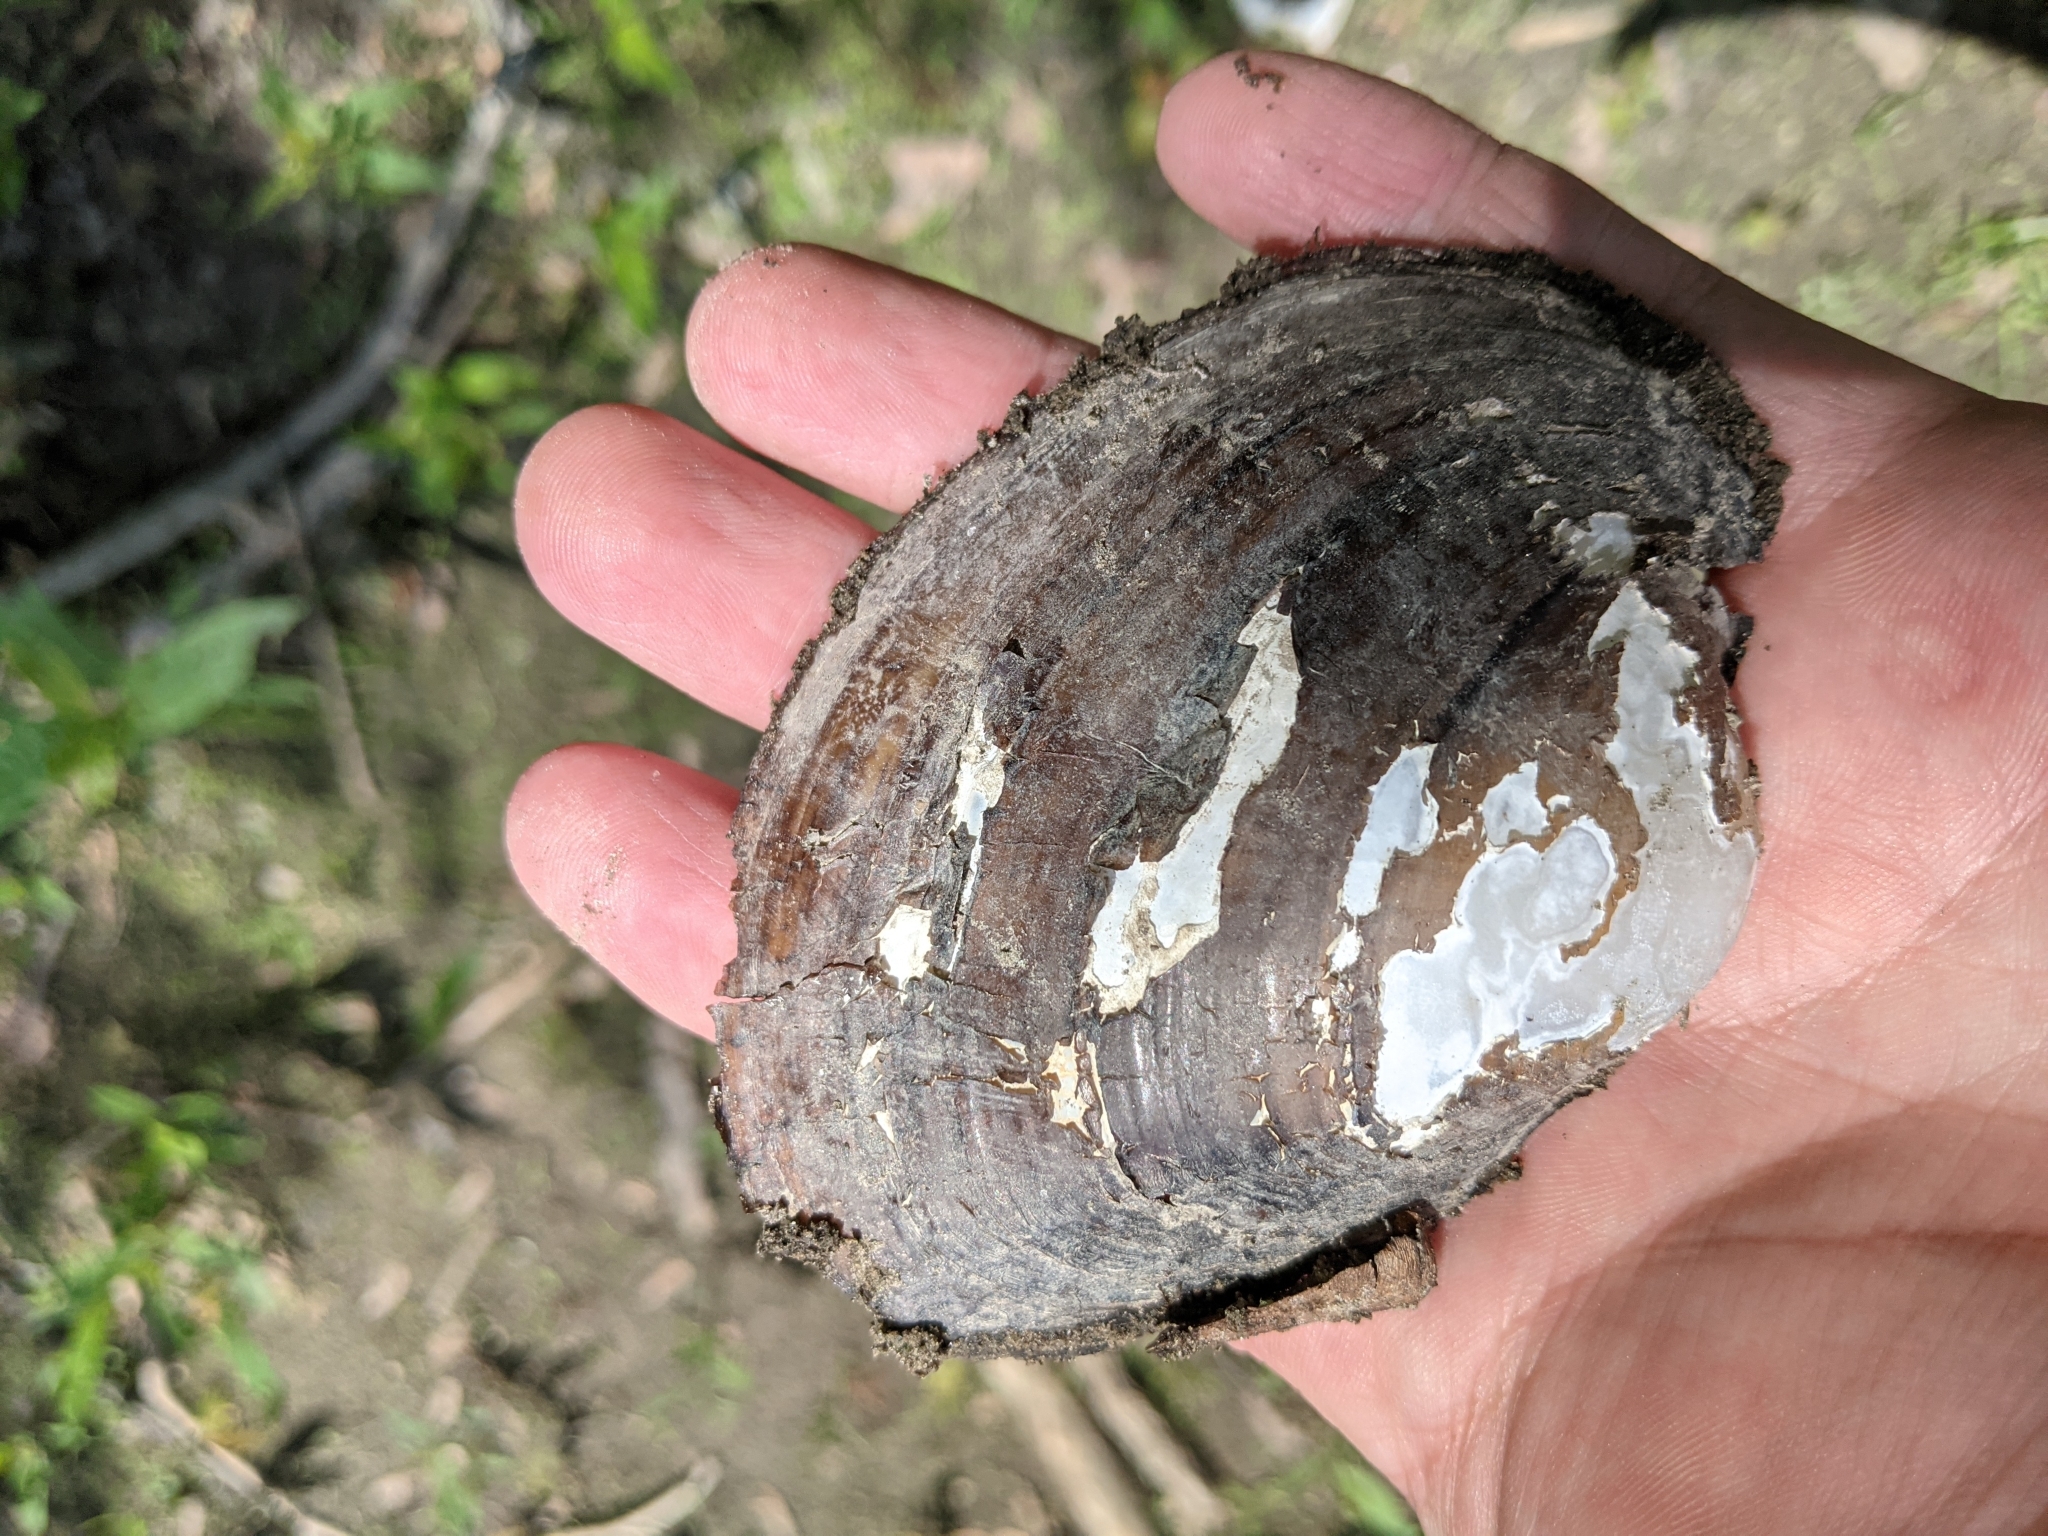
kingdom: Animalia
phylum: Mollusca
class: Bivalvia
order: Unionida
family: Unionidae
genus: Lampsilis
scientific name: Lampsilis cardium
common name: Plain pocketbook
